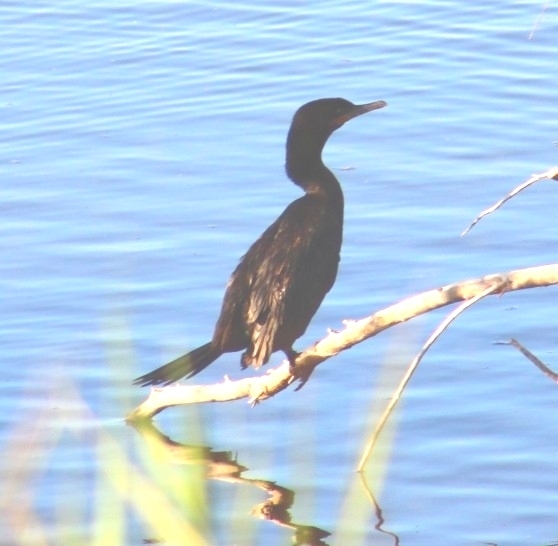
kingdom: Animalia
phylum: Chordata
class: Aves
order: Suliformes
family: Phalacrocoracidae
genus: Phalacrocorax
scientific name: Phalacrocorax auritus
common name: Double-crested cormorant
